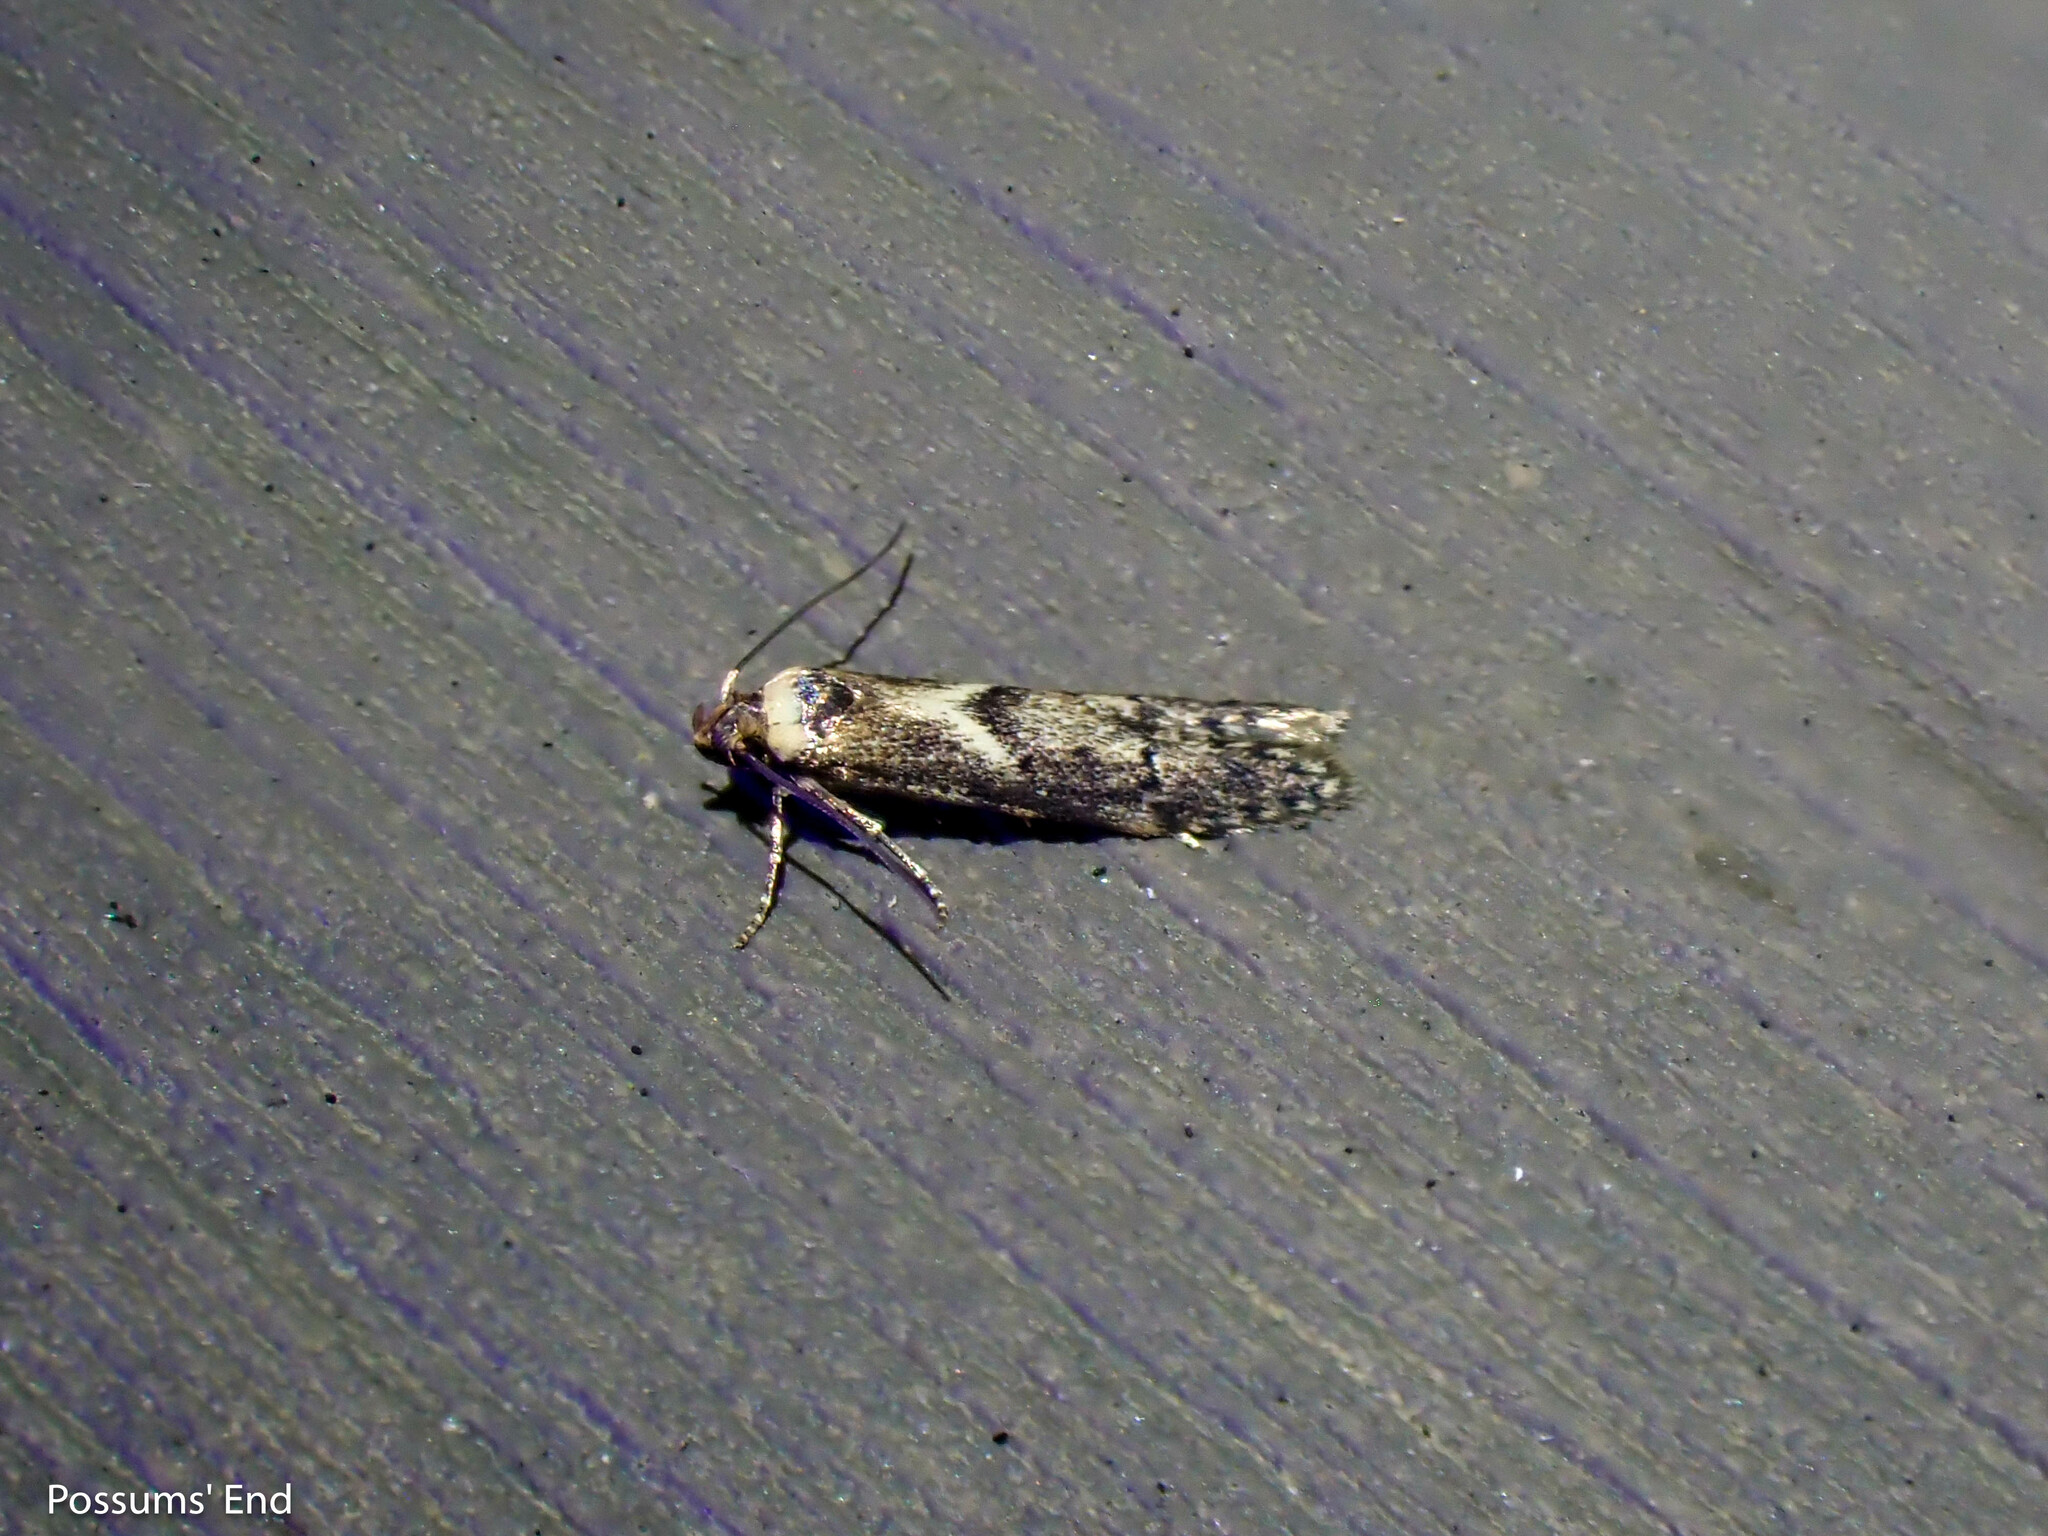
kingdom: Animalia
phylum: Arthropoda
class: Insecta
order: Lepidoptera
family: Blastobasidae
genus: Blastobasis
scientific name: Blastobasis adustella
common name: Dingy dowd
